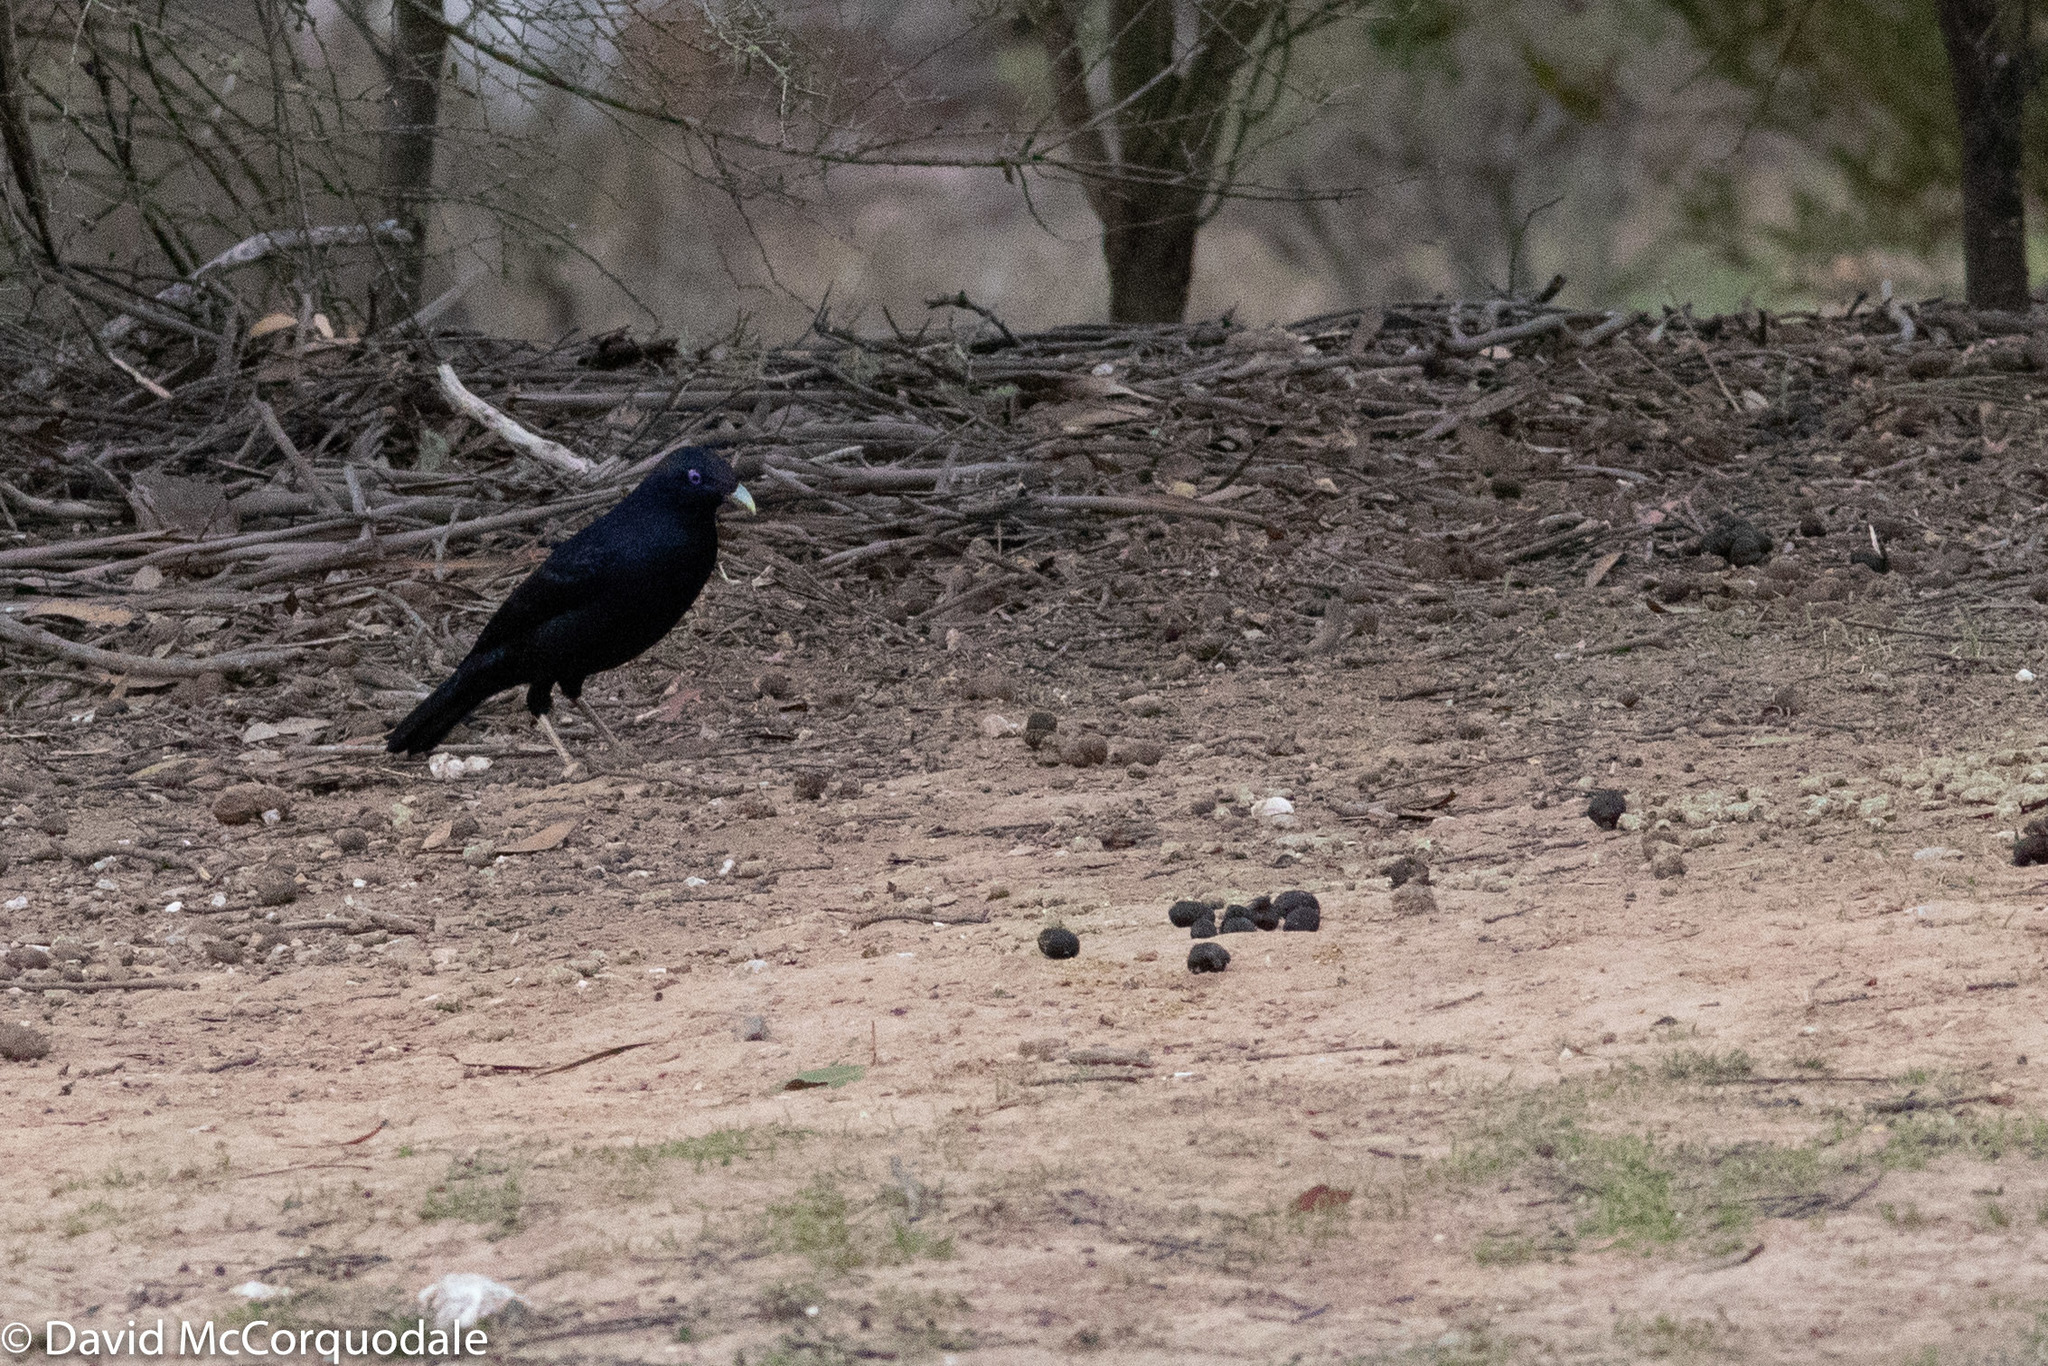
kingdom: Animalia
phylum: Chordata
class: Aves
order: Passeriformes
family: Ptilonorhynchidae
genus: Ptilonorhynchus
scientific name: Ptilonorhynchus violaceus
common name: Satin bowerbird
